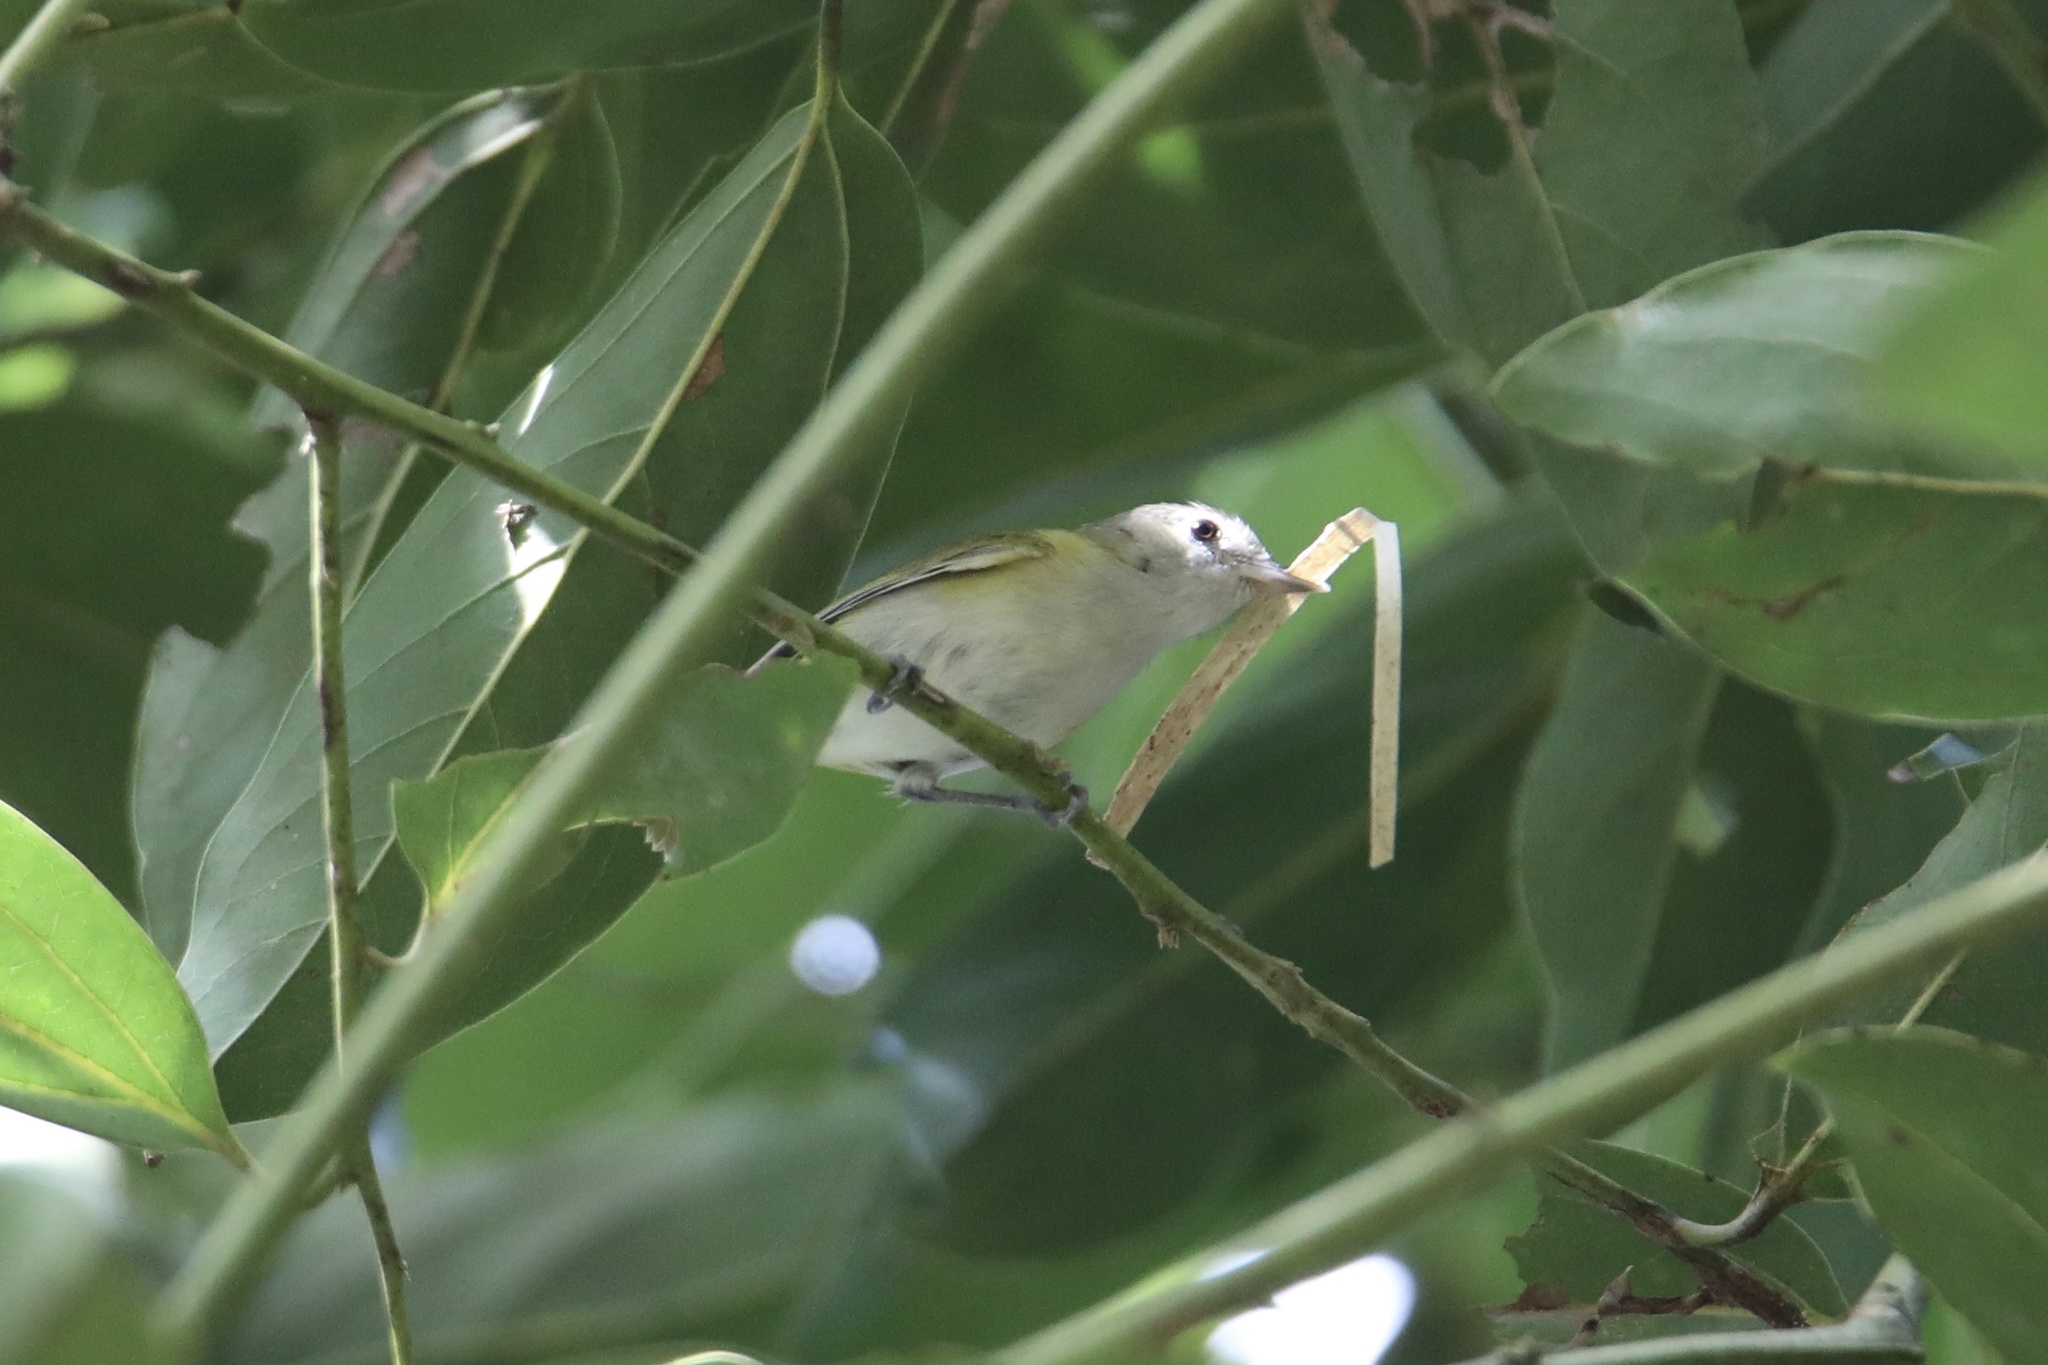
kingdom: Animalia
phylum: Chordata
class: Aves
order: Passeriformes
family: Vireonidae
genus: Hylophilus
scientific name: Hylophilus decurtatus
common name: Lesser greenlet
